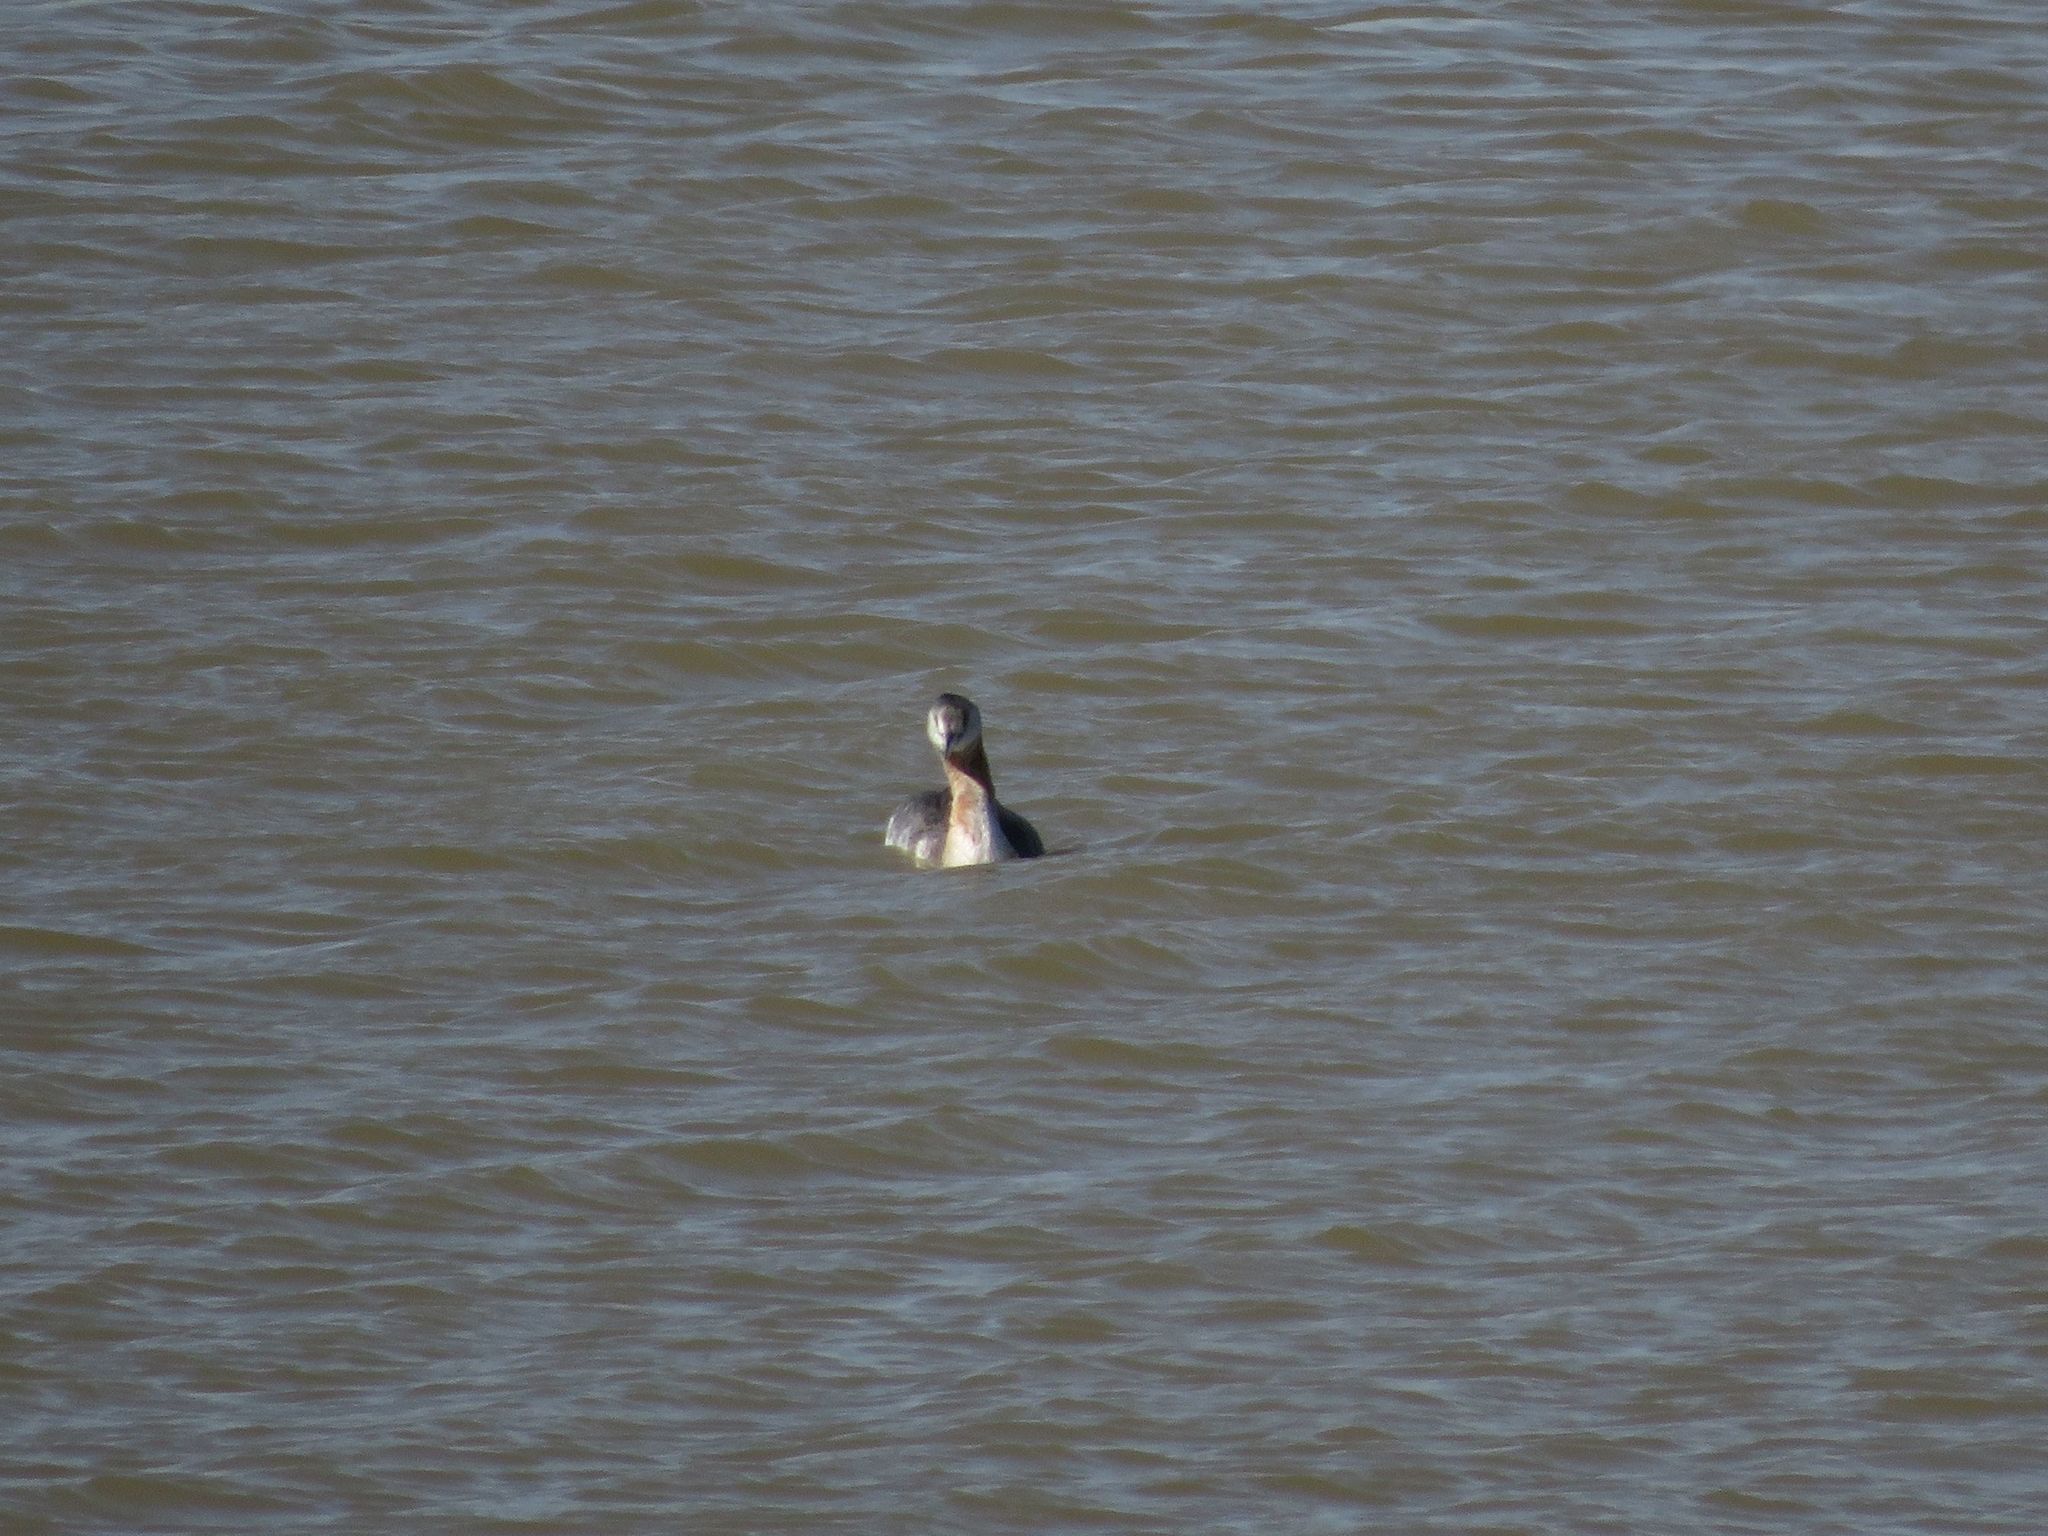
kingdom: Animalia
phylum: Chordata
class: Aves
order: Podicipediformes
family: Podicipedidae
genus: Podiceps
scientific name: Podiceps major
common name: Great grebe
